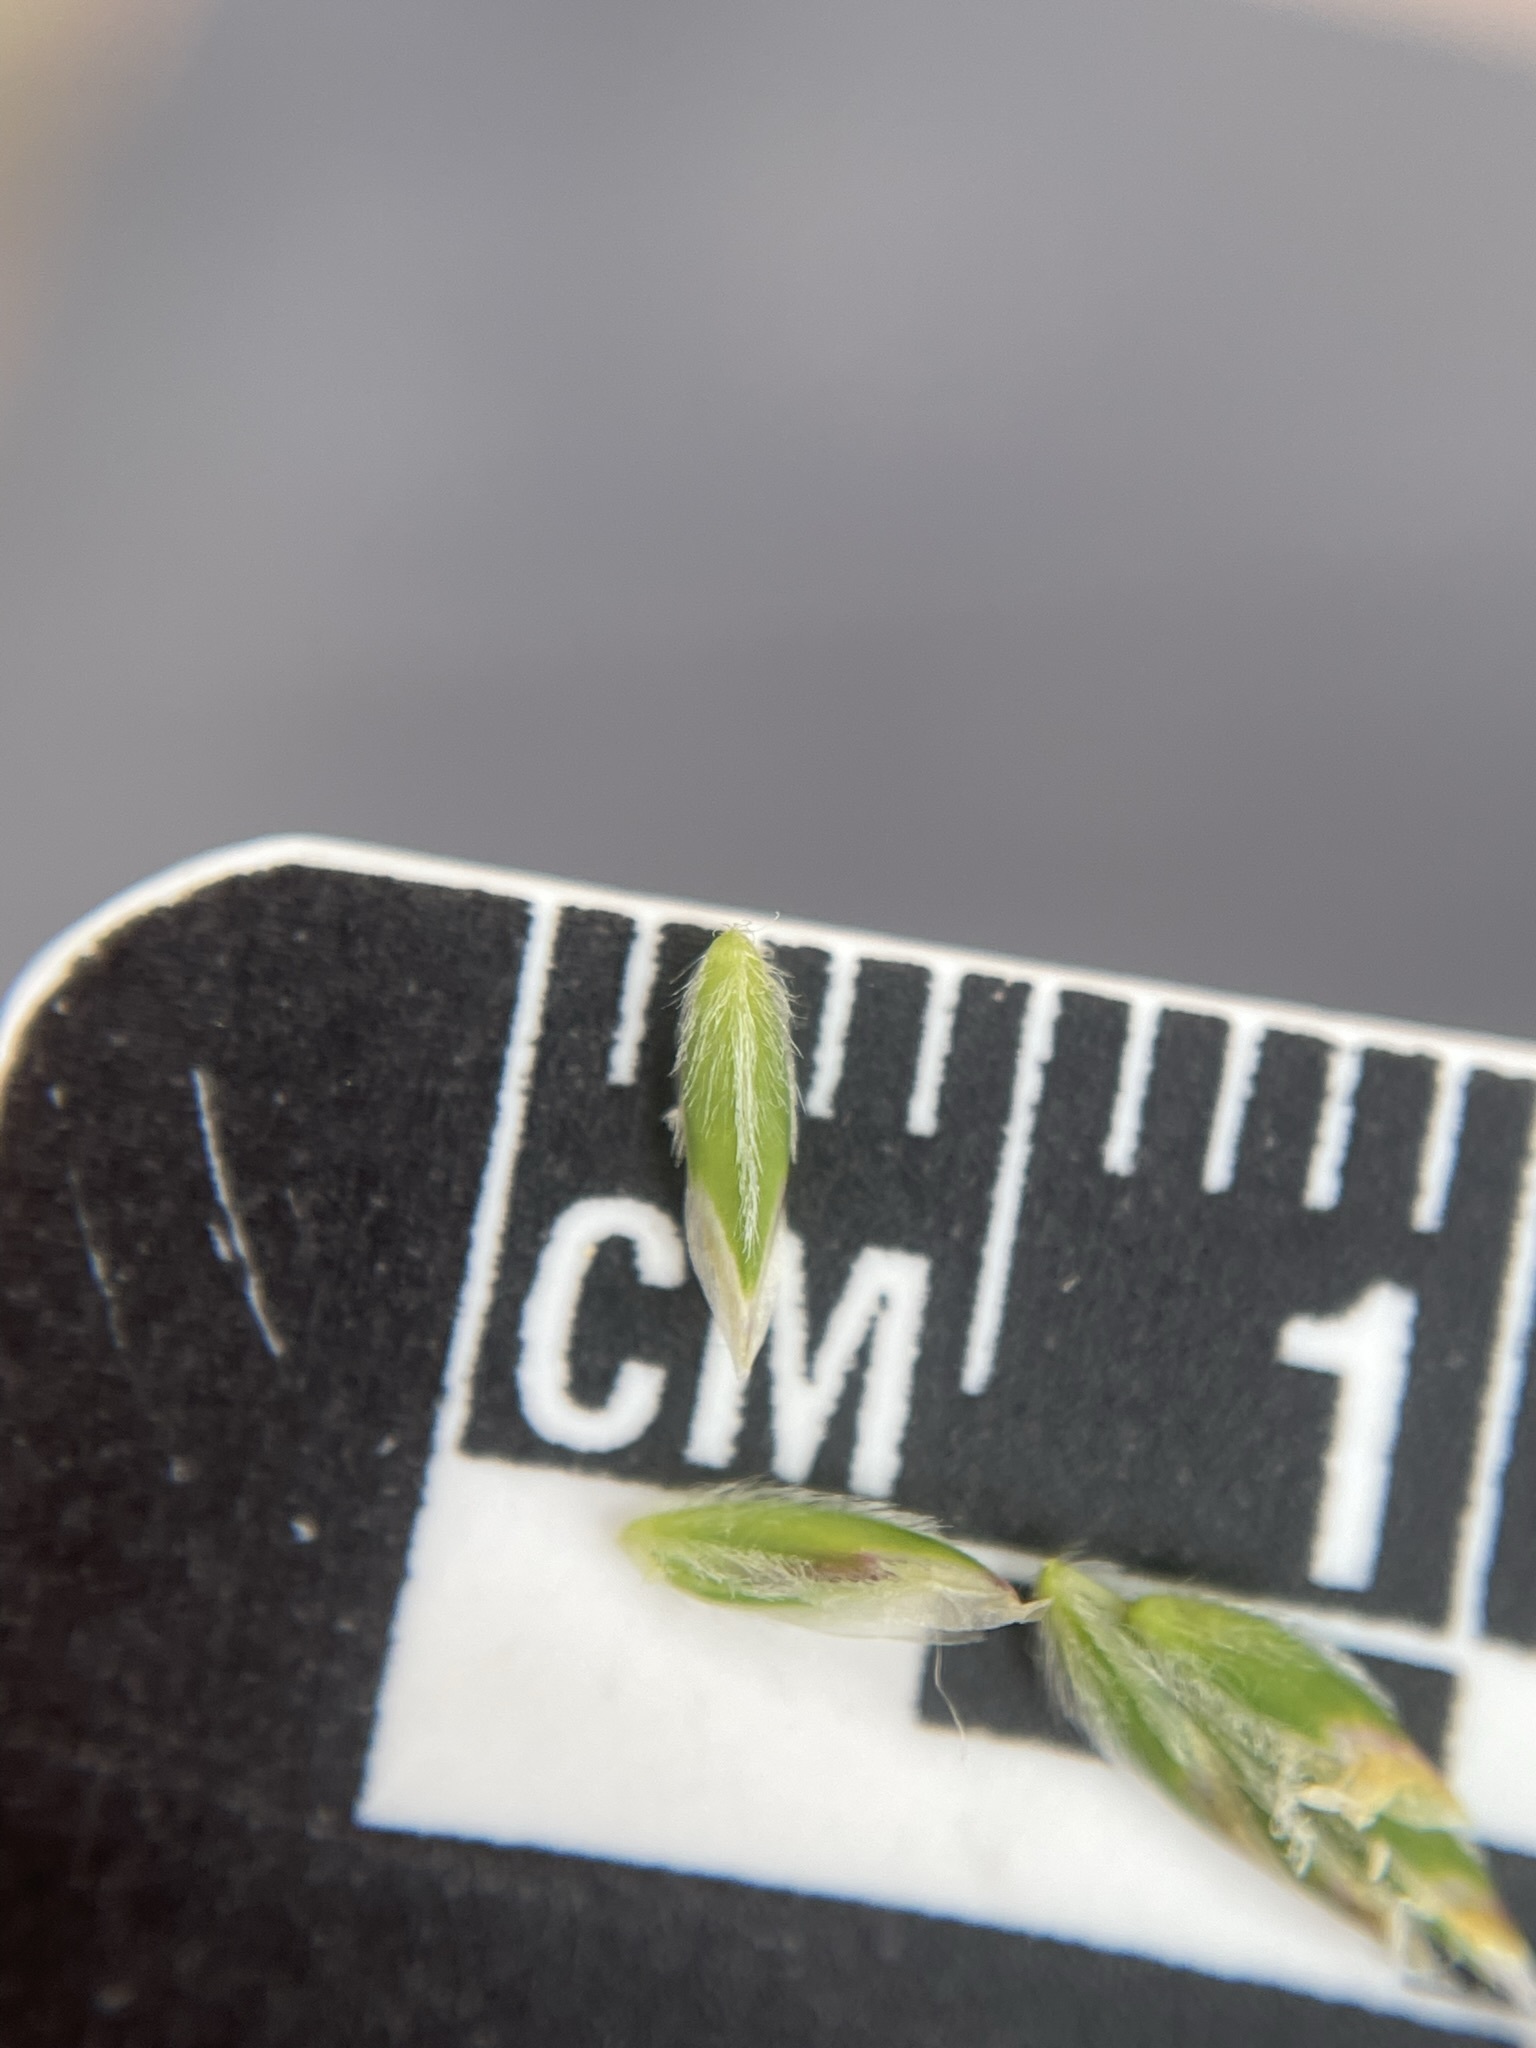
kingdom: Plantae
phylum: Tracheophyta
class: Liliopsida
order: Poales
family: Poaceae
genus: Poa
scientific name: Poa alpina
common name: Alpine bluegrass
